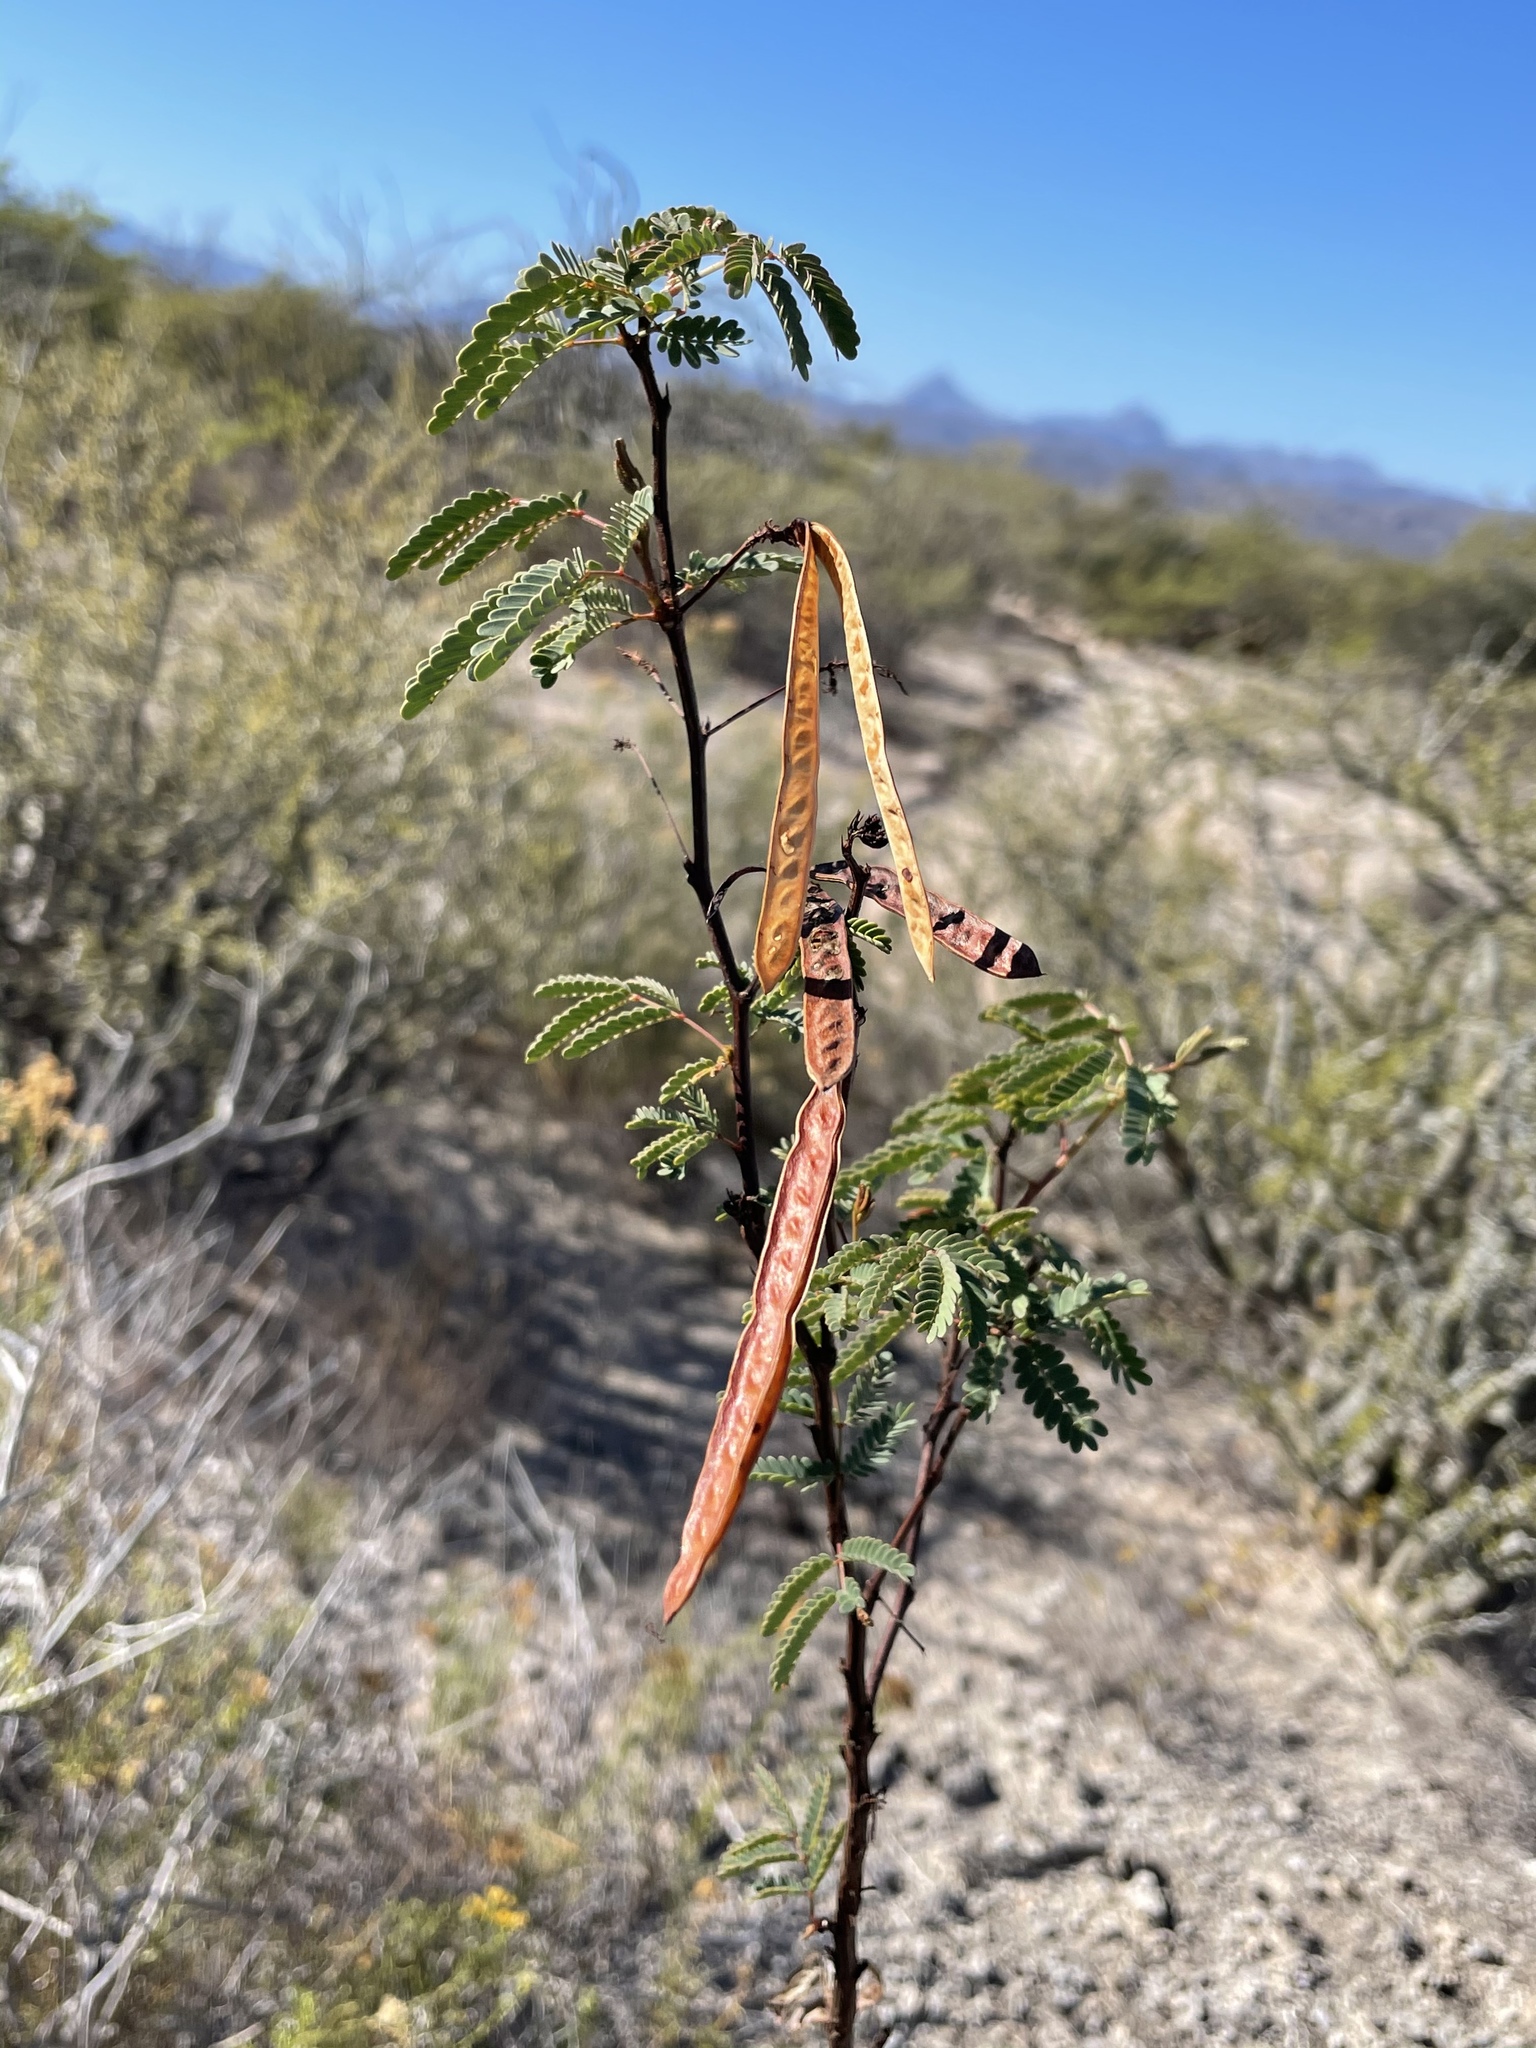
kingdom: Plantae
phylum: Tracheophyta
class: Magnoliopsida
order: Fabales
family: Fabaceae
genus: Desmanthus
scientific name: Desmanthus fruticosus
